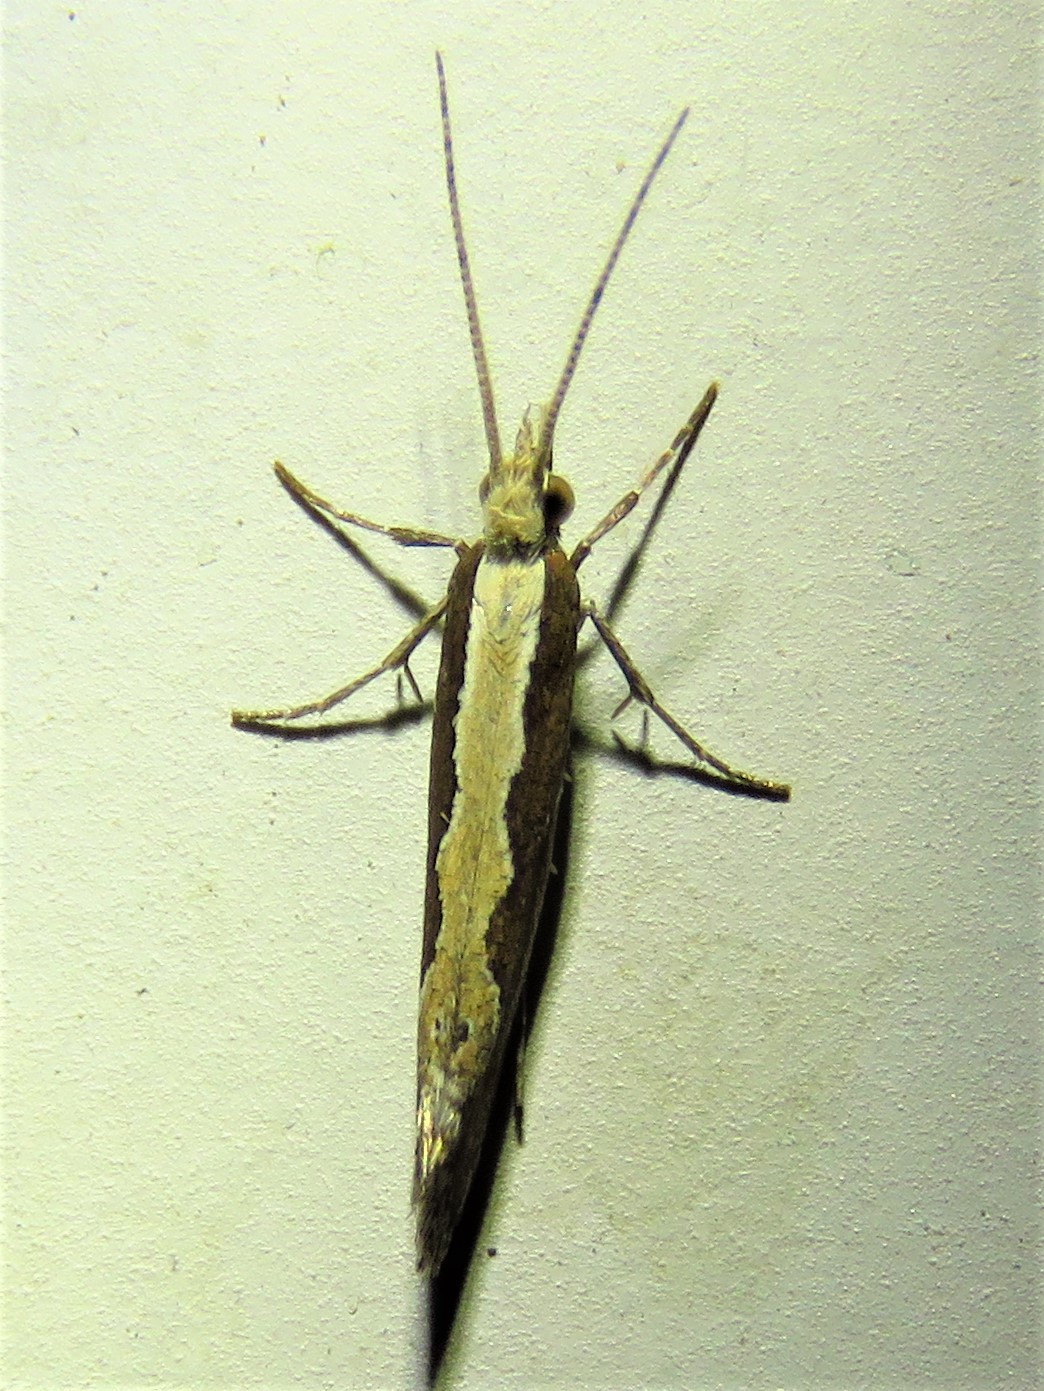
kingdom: Animalia
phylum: Arthropoda
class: Insecta
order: Lepidoptera
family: Plutellidae
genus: Plutella
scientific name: Plutella xylostella
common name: Diamond-back moth
